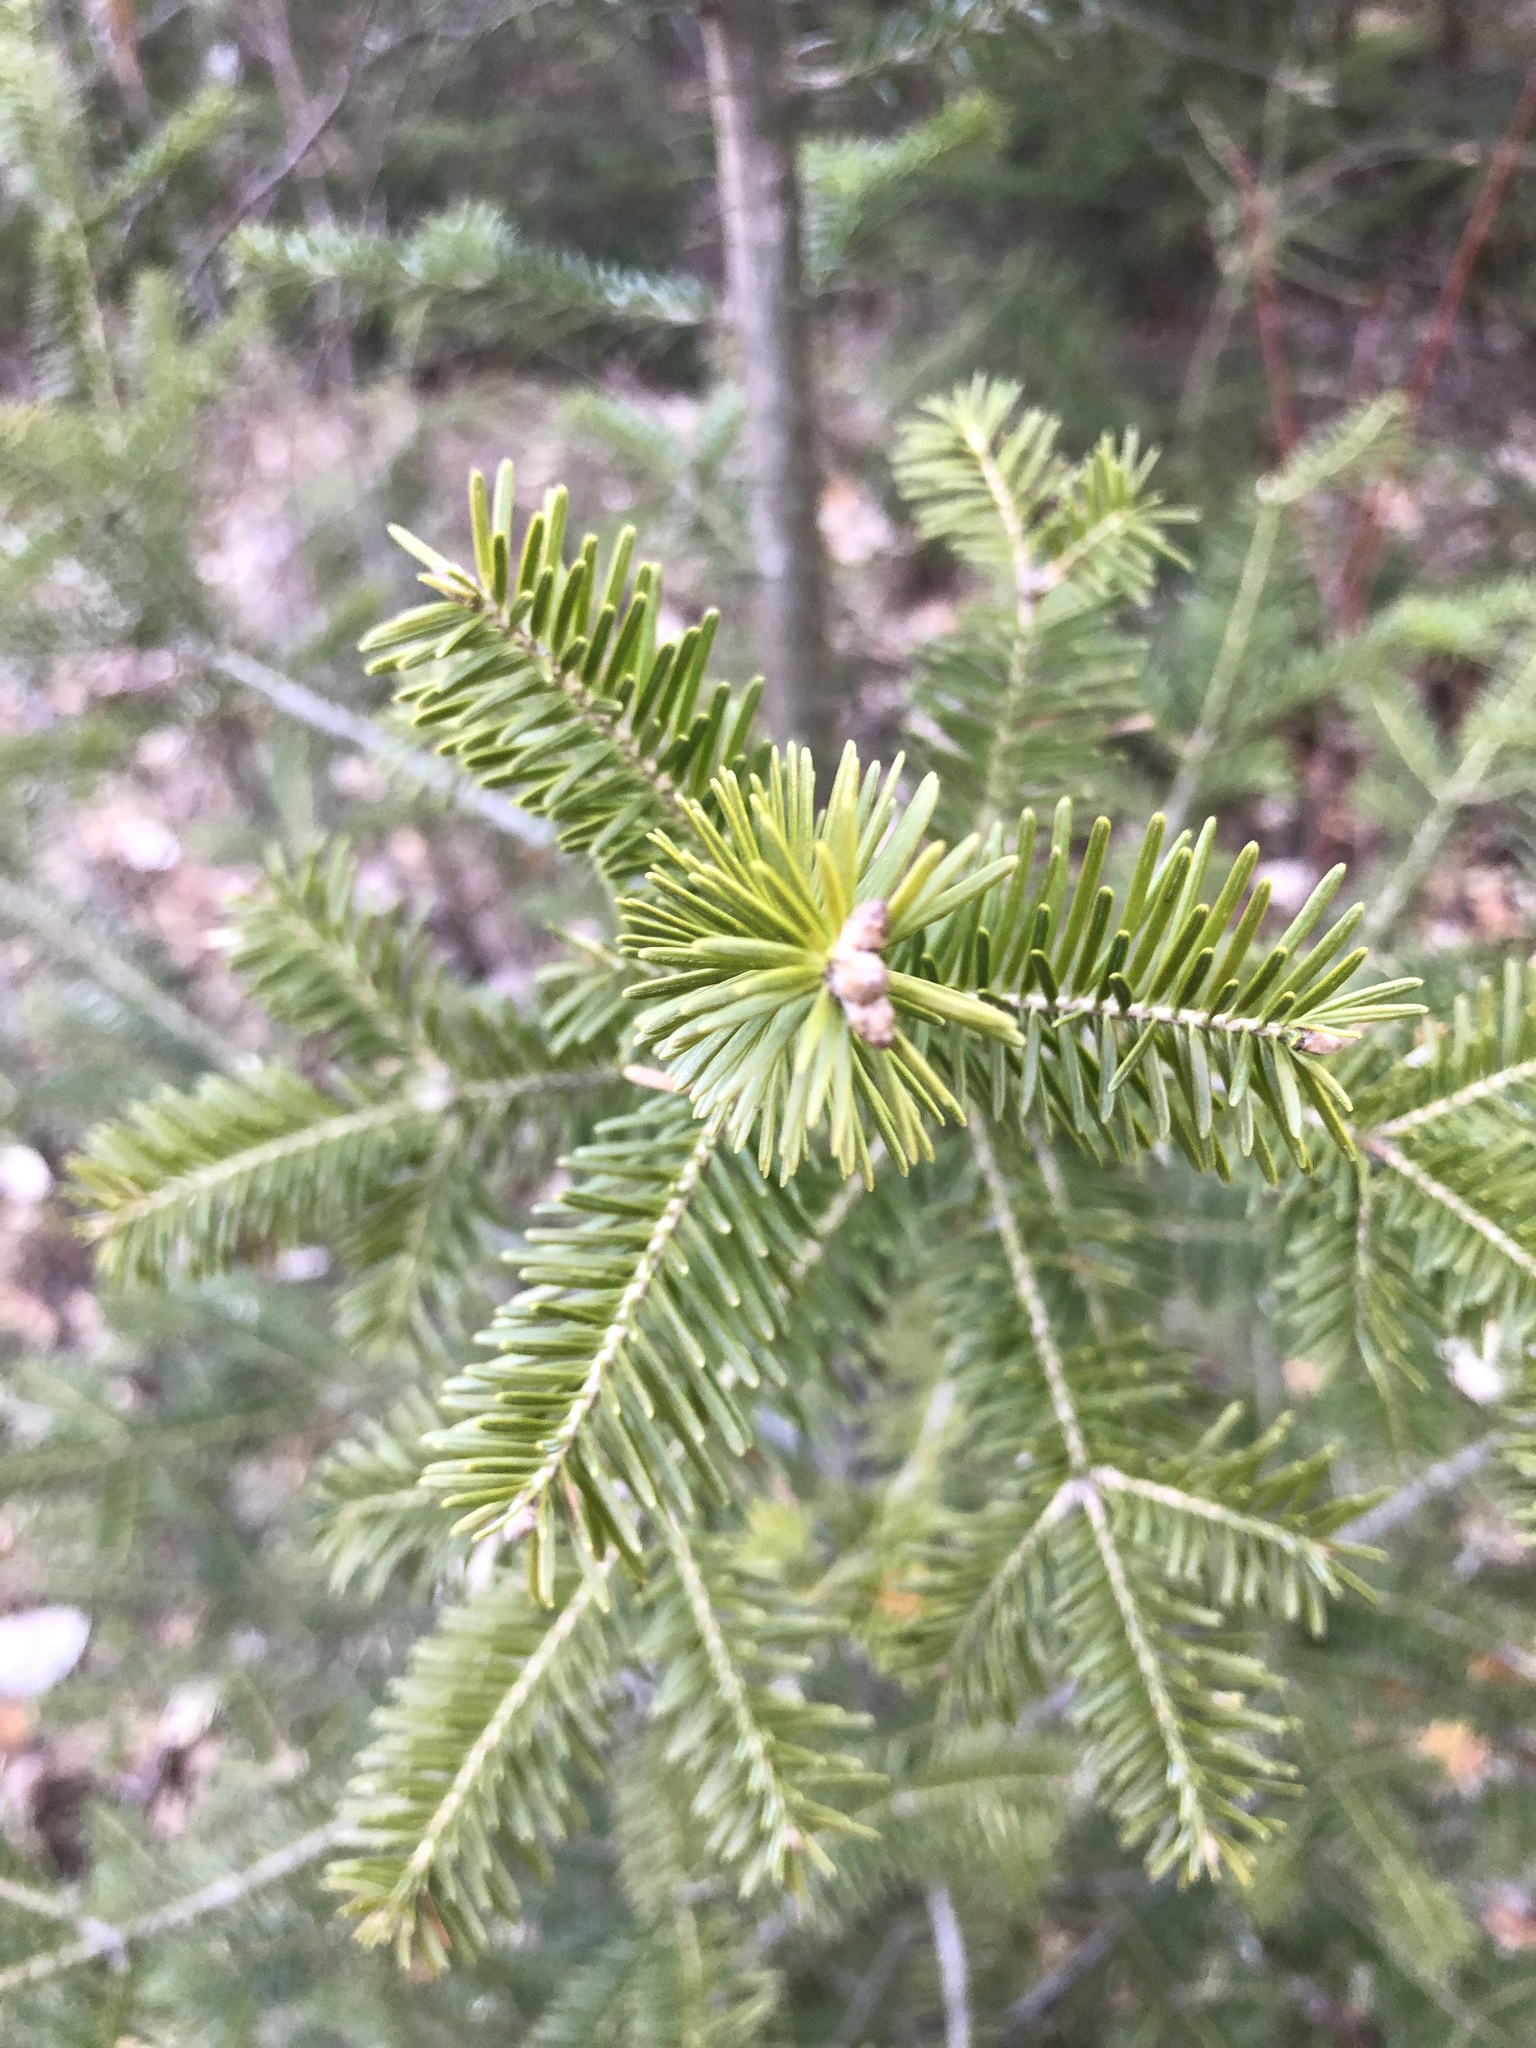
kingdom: Plantae
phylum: Tracheophyta
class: Pinopsida
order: Pinales
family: Pinaceae
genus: Abies
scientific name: Abies balsamea
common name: Balsam fir
